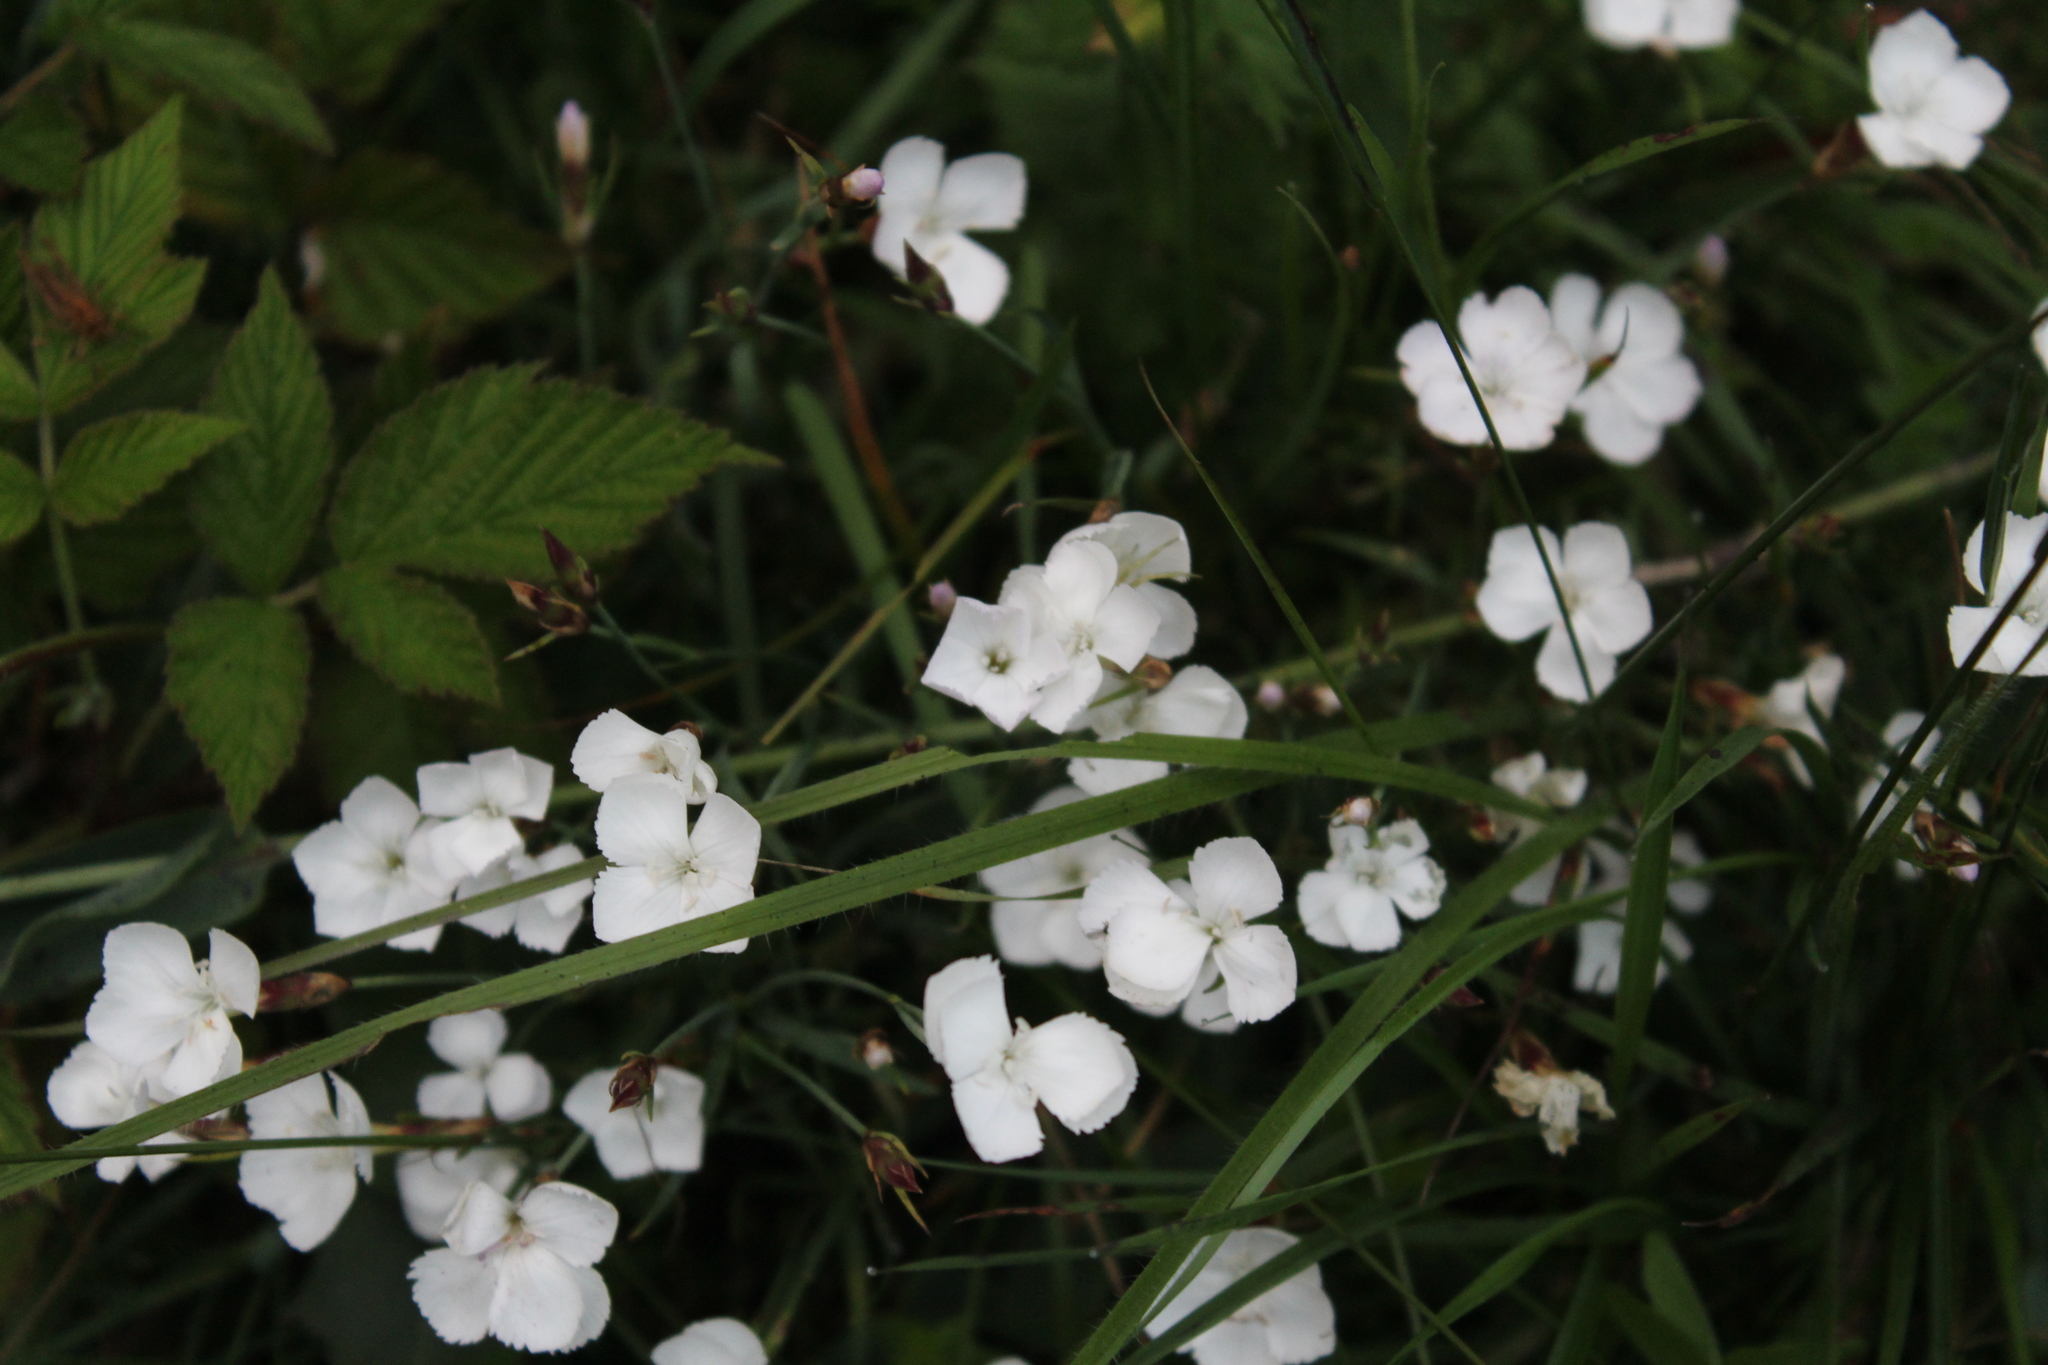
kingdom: Plantae
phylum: Tracheophyta
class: Magnoliopsida
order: Caryophyllales
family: Caryophyllaceae
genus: Dianthus
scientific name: Dianthus cretaceus
